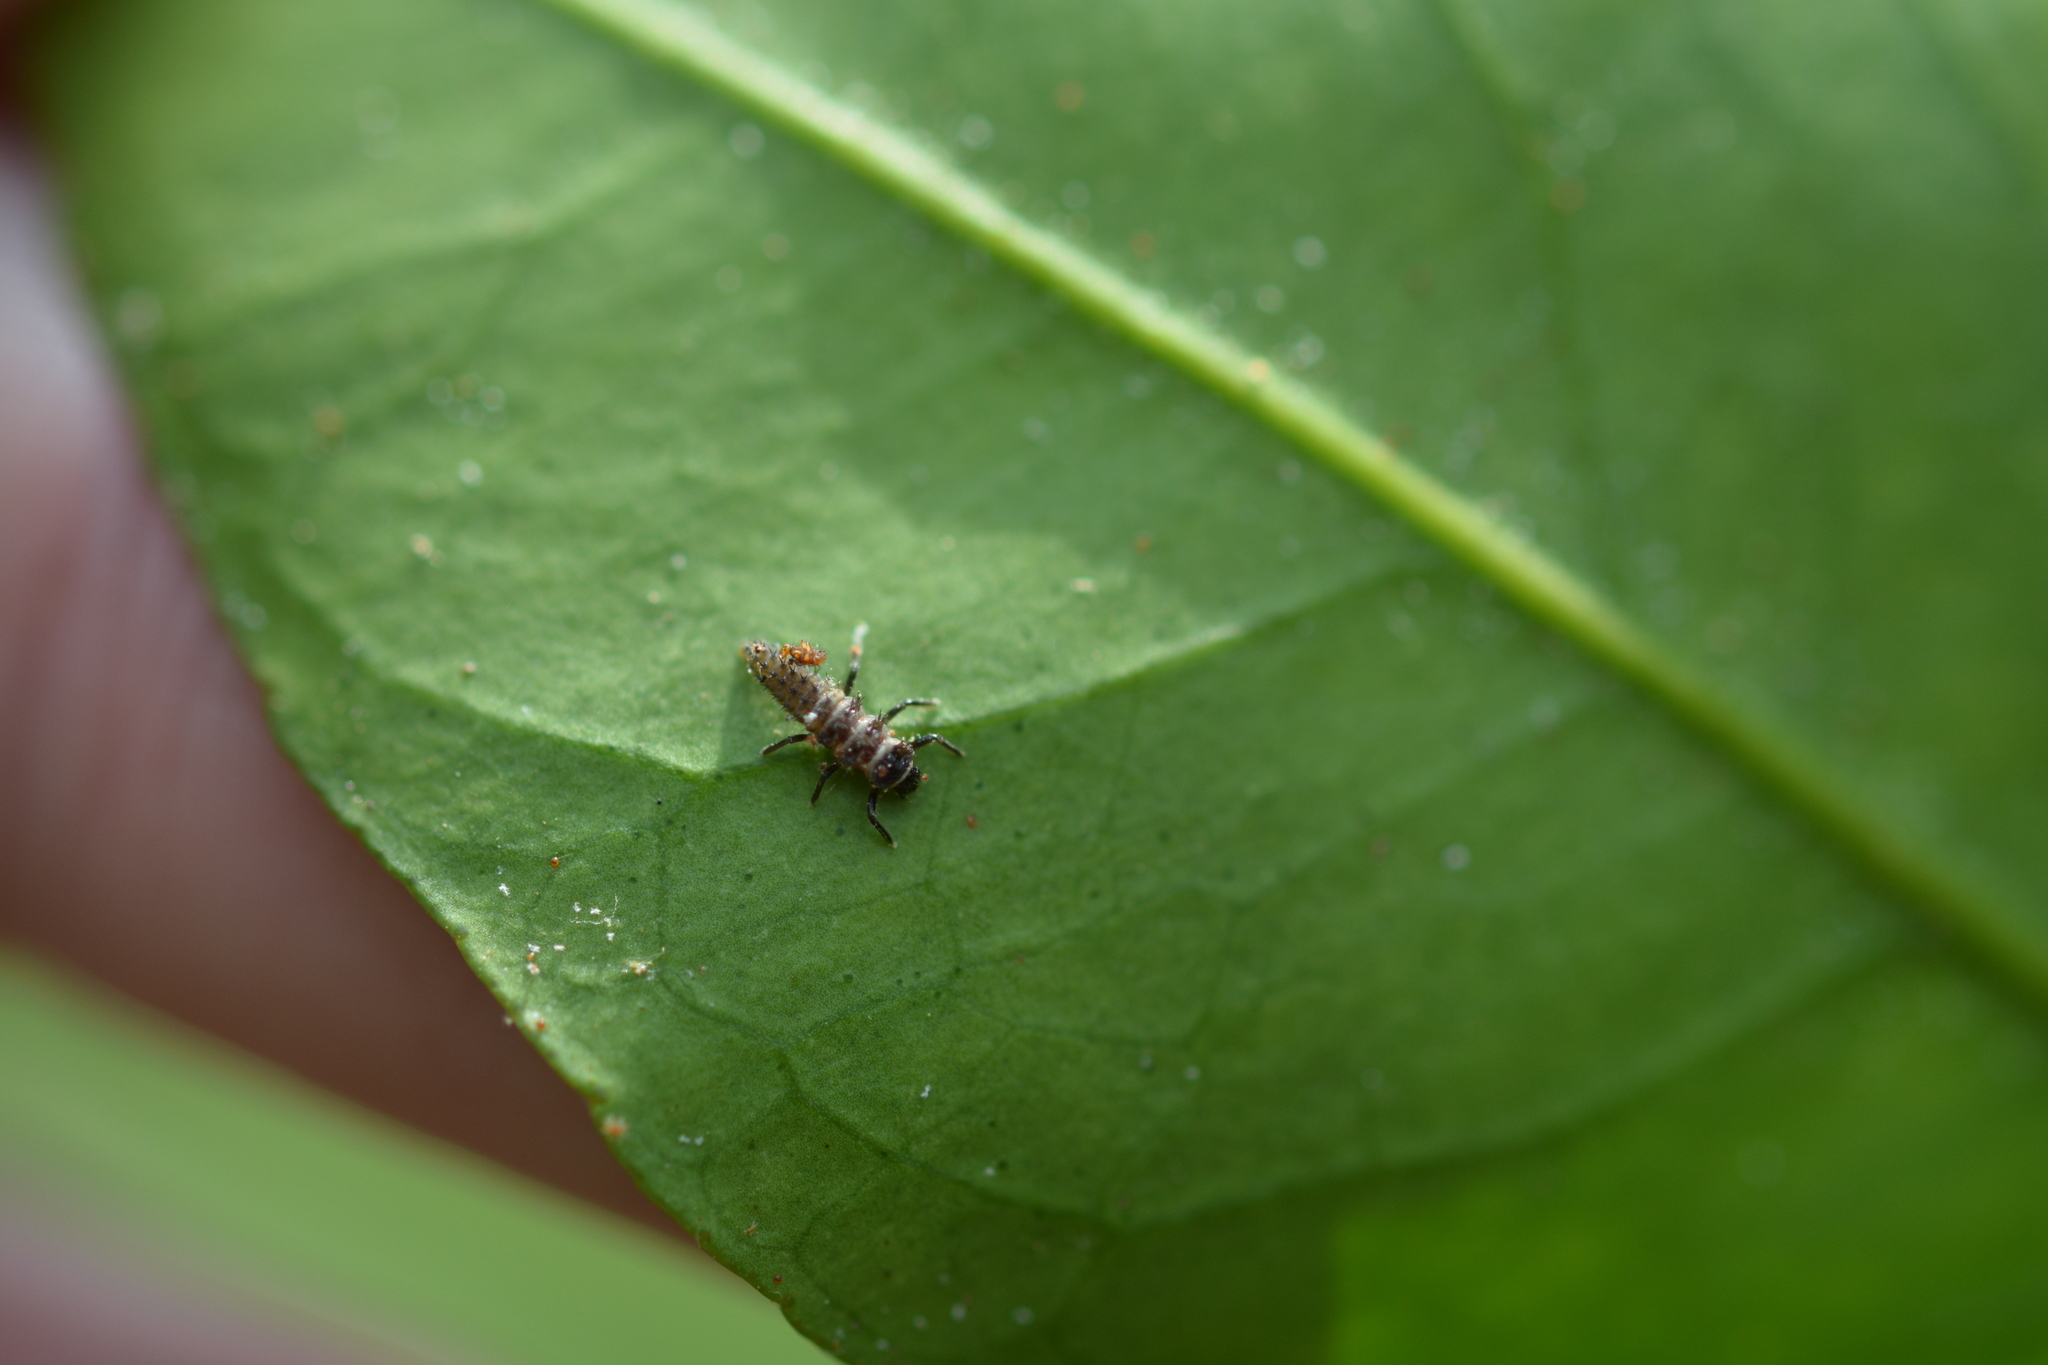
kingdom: Animalia
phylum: Arthropoda
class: Insecta
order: Coleoptera
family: Coccinellidae
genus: Harmonia
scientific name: Harmonia axyridis
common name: Harlequin ladybird
